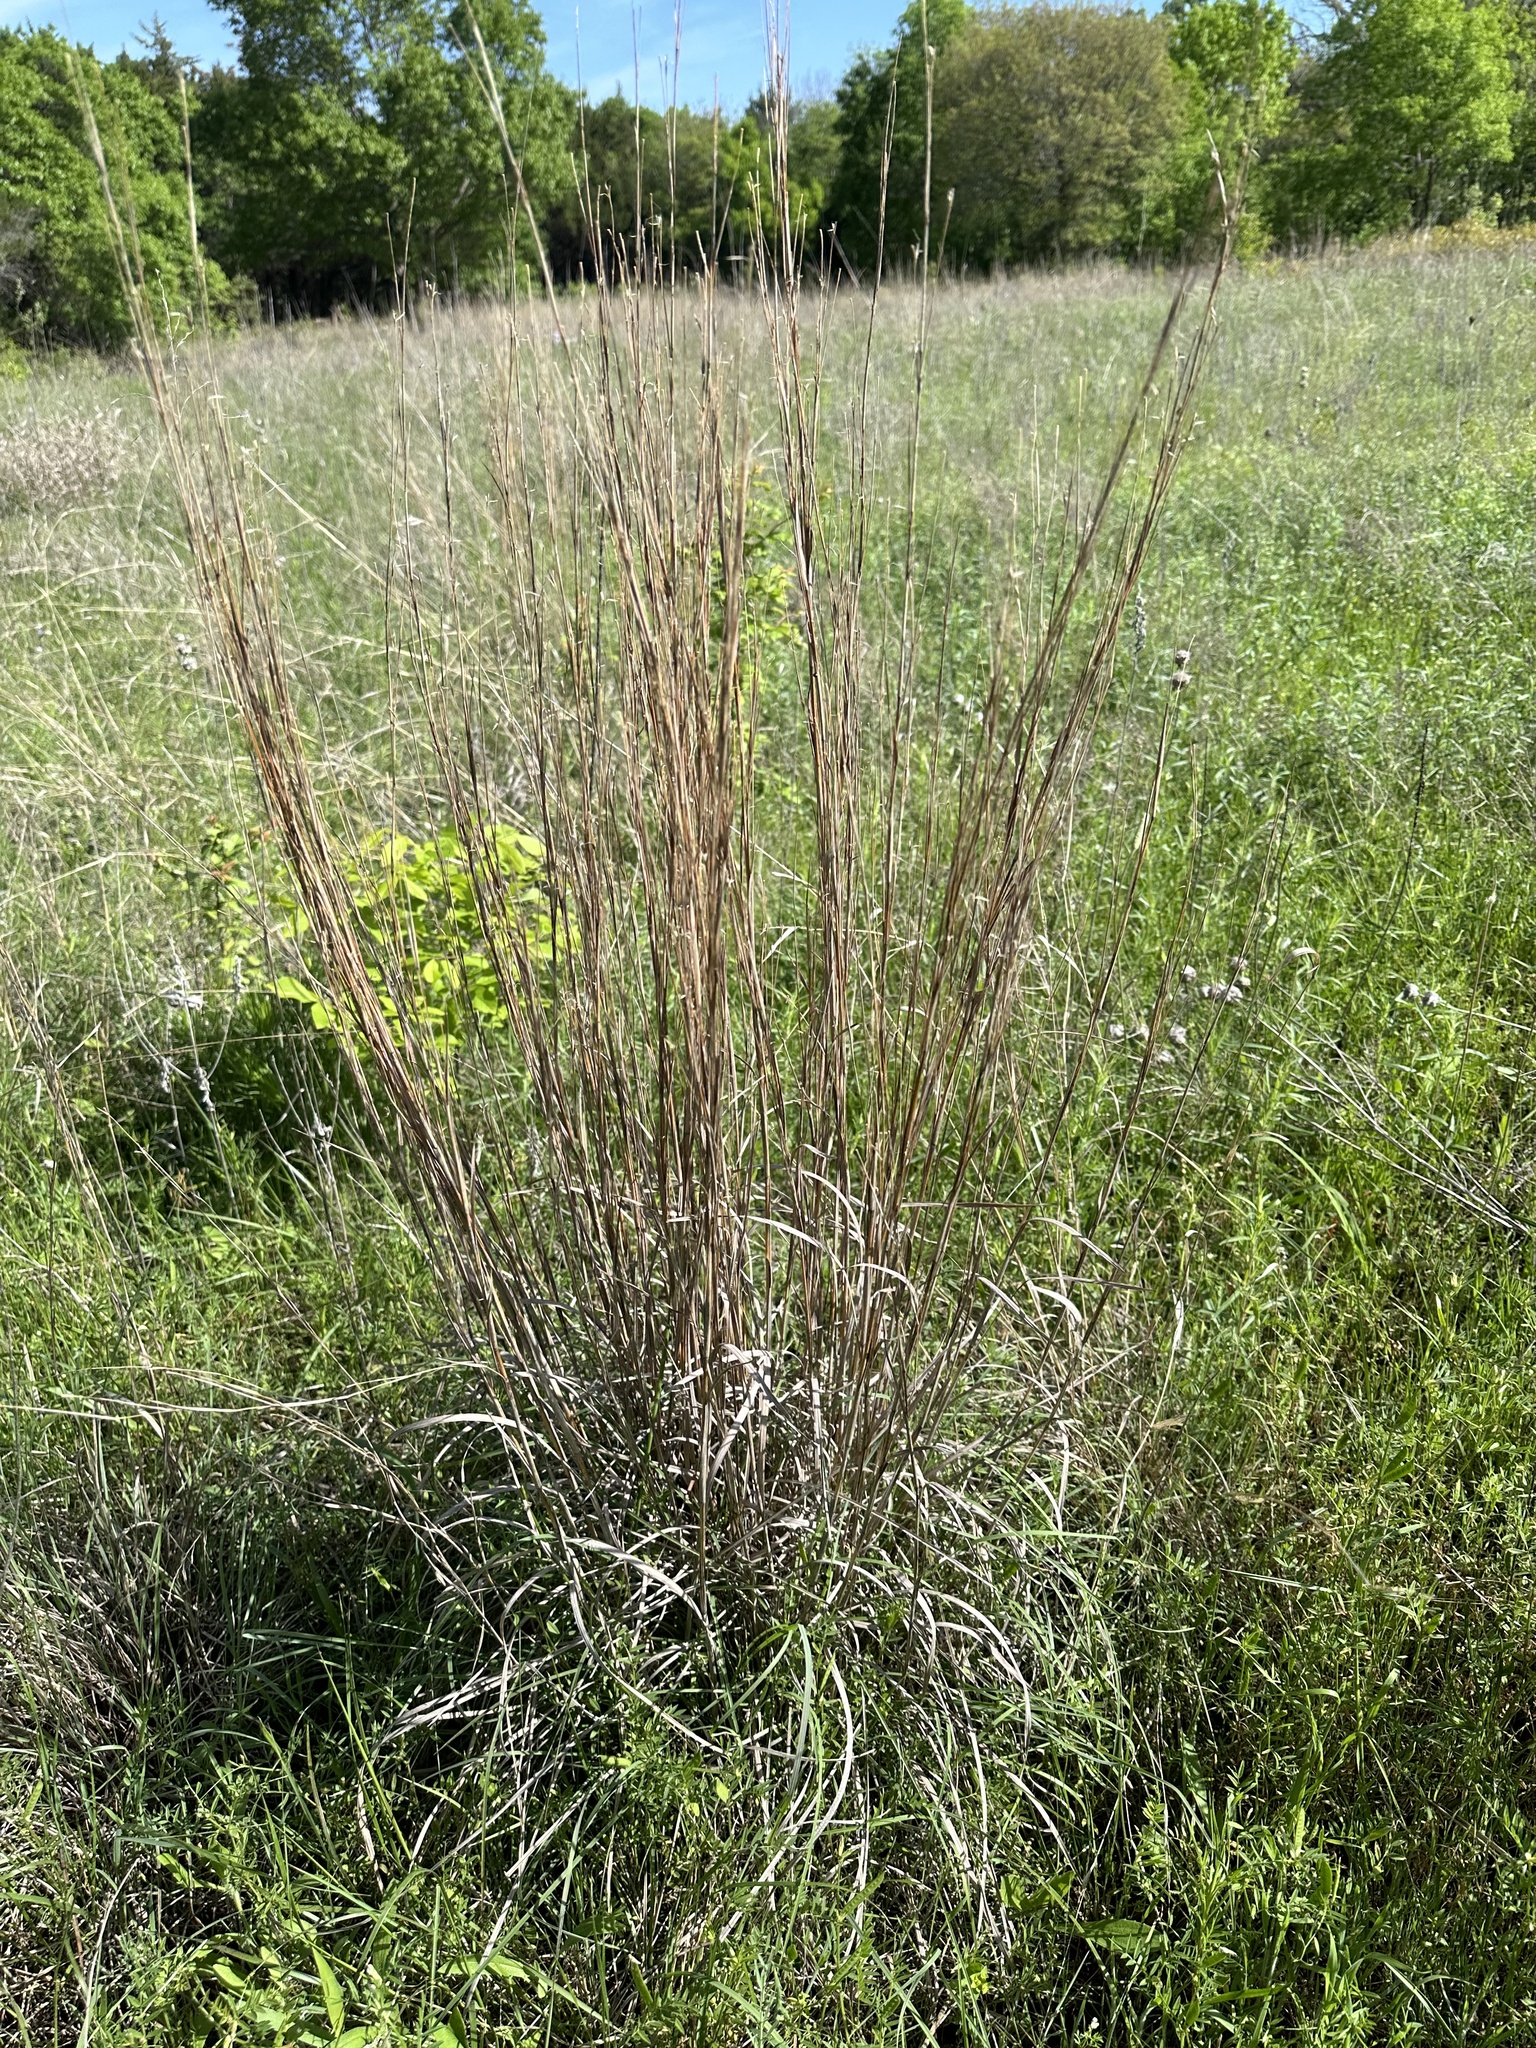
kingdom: Plantae
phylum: Tracheophyta
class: Liliopsida
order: Poales
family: Poaceae
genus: Schizachyrium
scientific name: Schizachyrium scoparium
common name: Little bluestem
